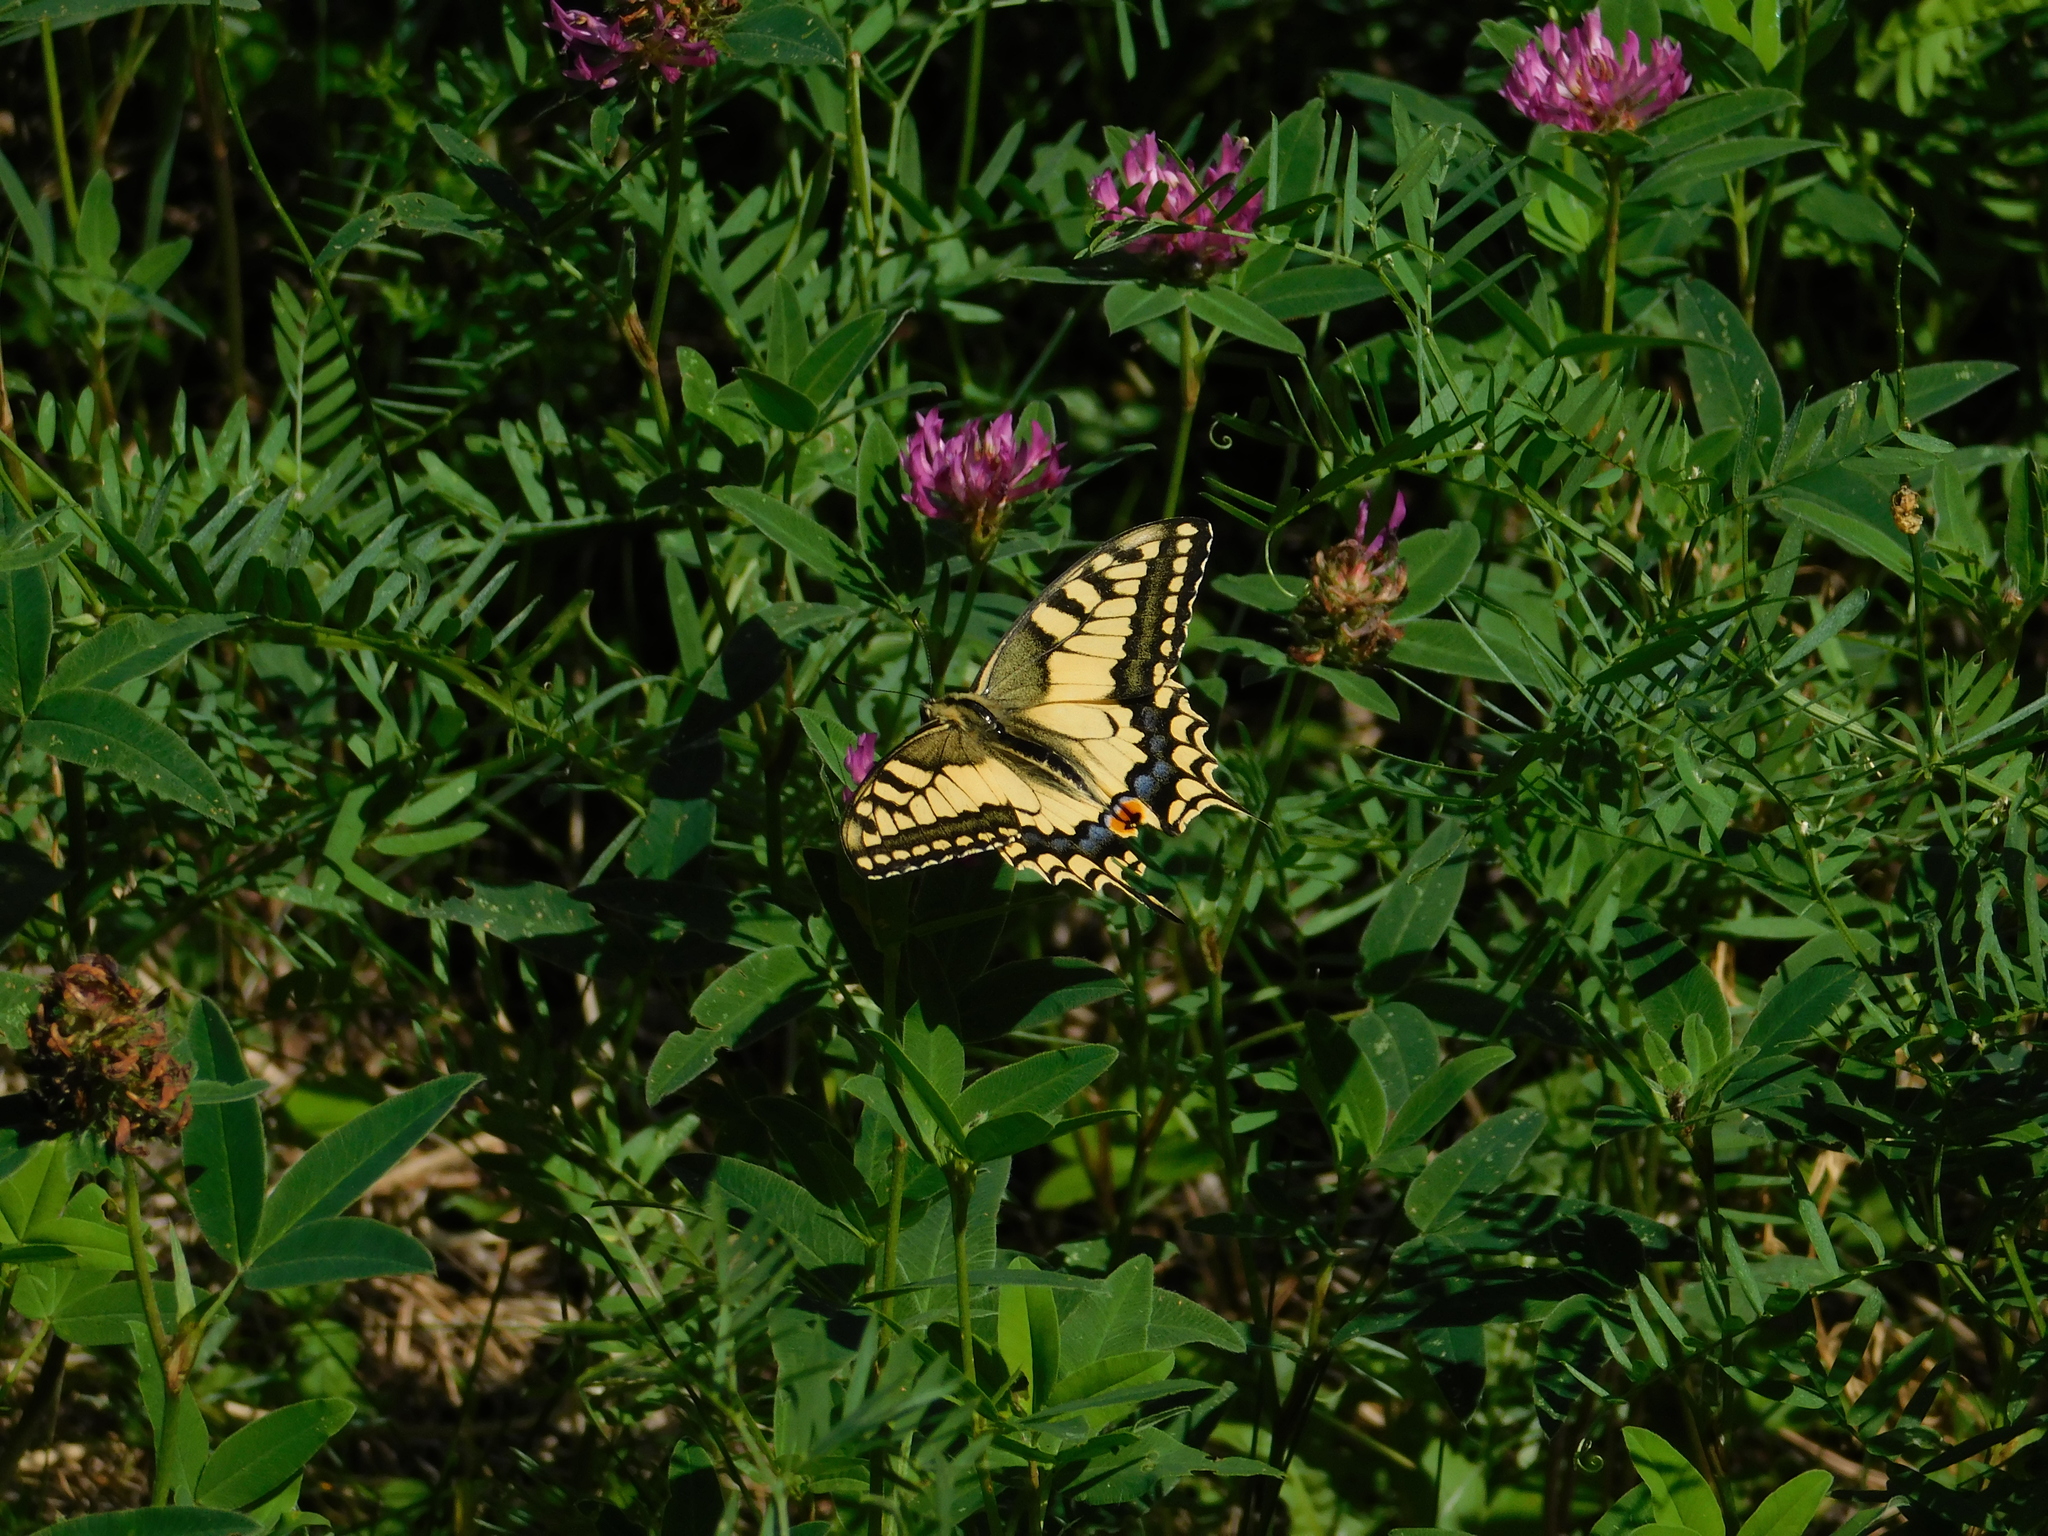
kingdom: Animalia
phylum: Arthropoda
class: Insecta
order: Lepidoptera
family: Papilionidae
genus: Papilio
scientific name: Papilio machaon
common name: Swallowtail
